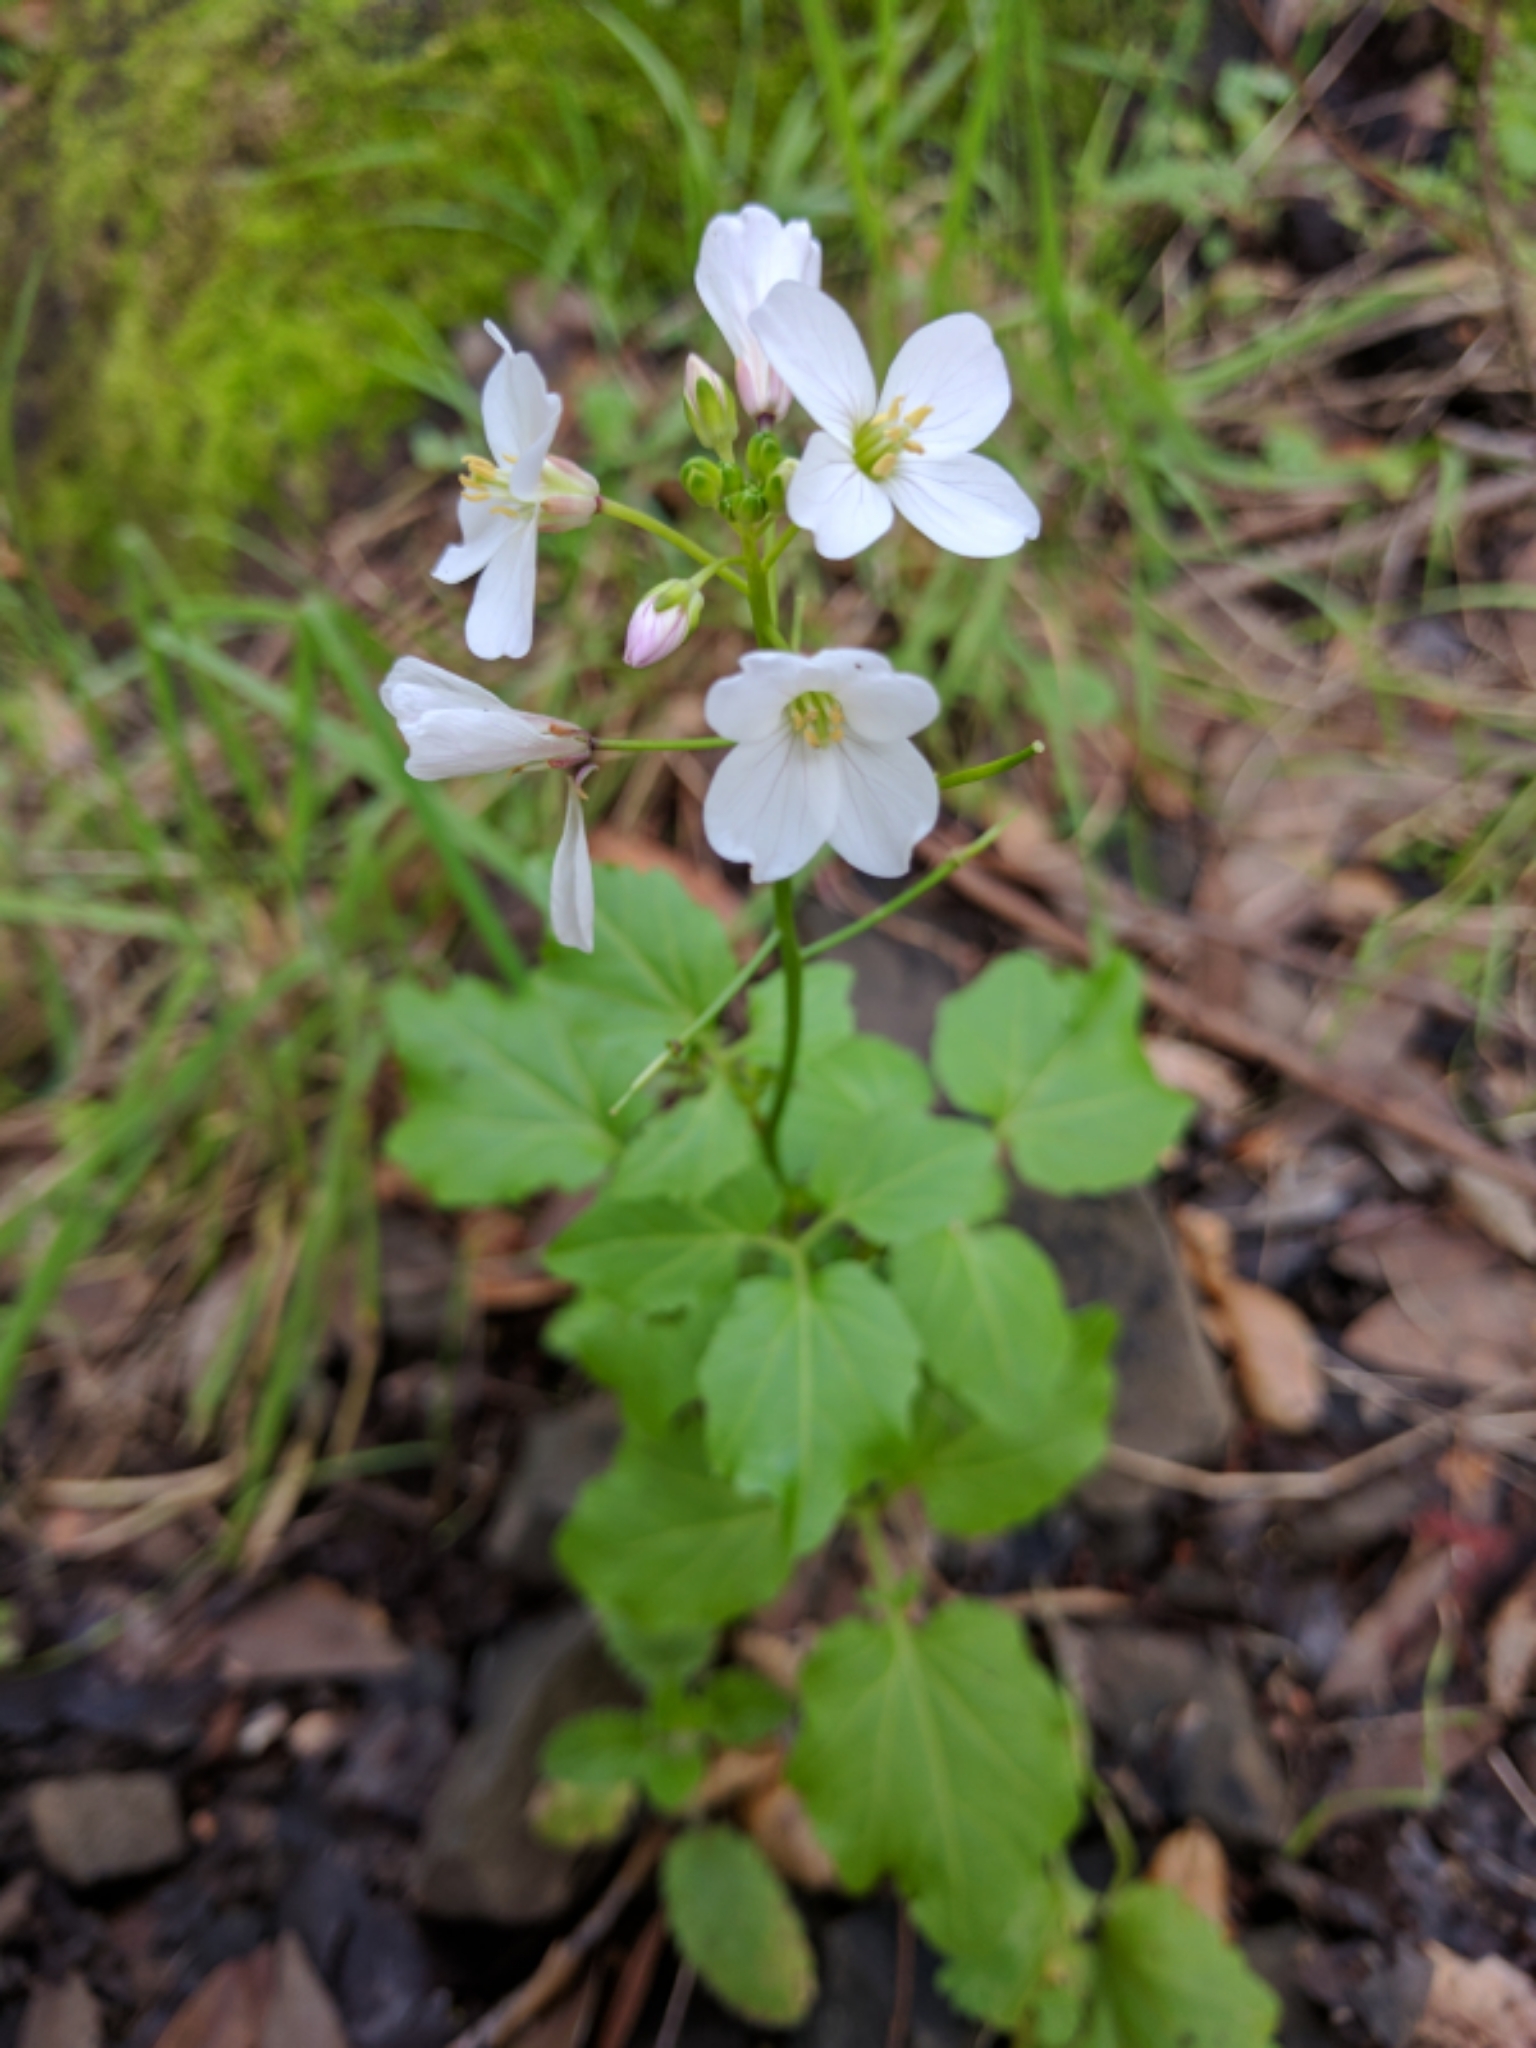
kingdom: Plantae
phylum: Tracheophyta
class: Magnoliopsida
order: Brassicales
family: Brassicaceae
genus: Cardamine
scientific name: Cardamine californica
